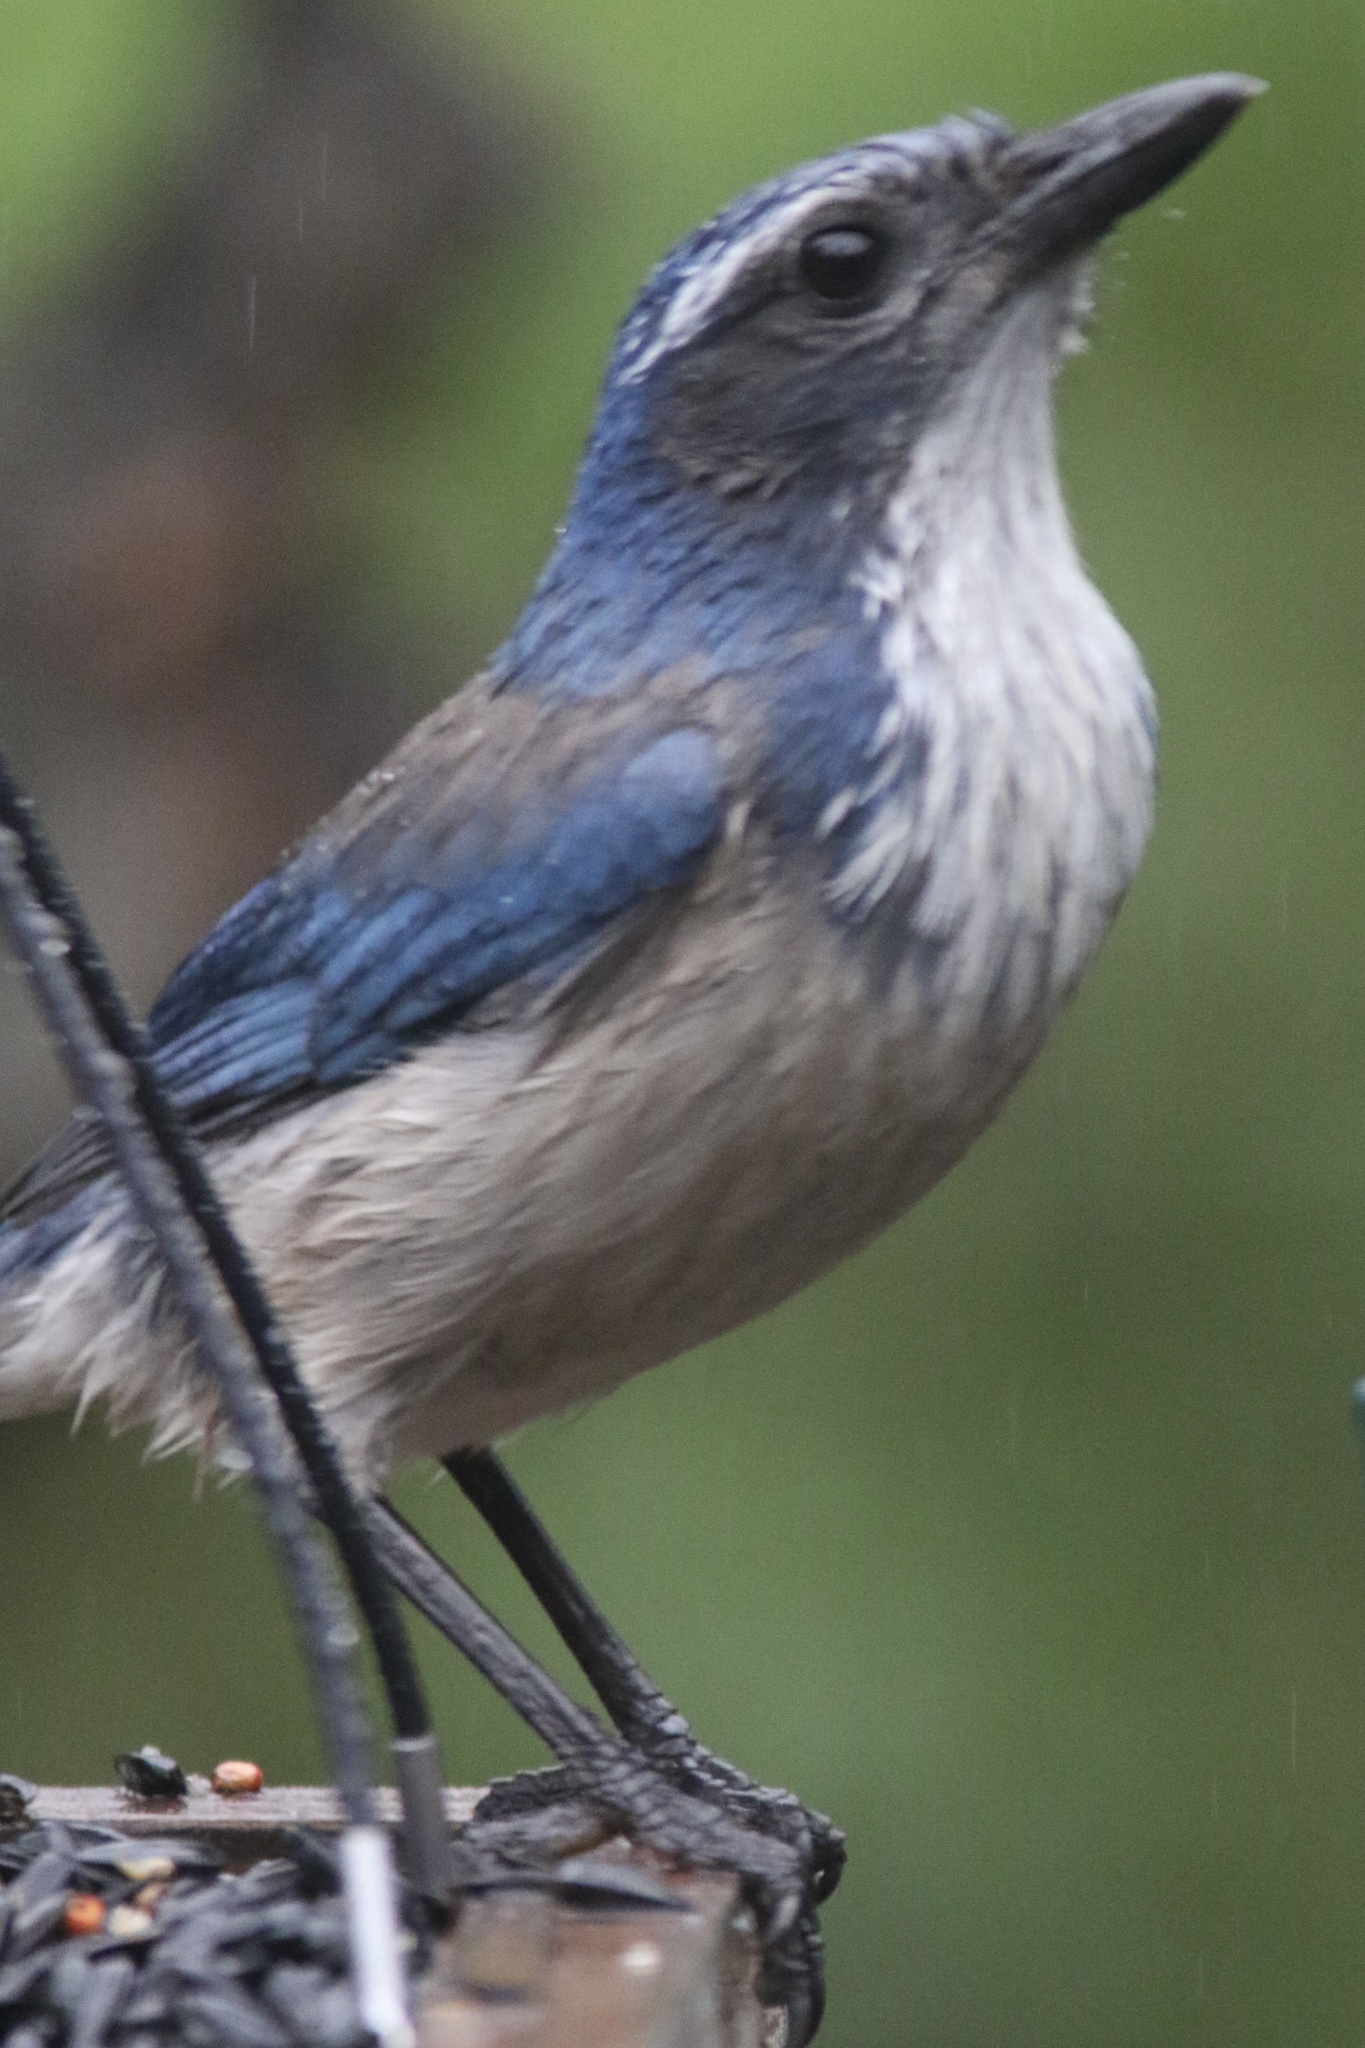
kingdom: Animalia
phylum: Chordata
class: Aves
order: Passeriformes
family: Corvidae
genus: Aphelocoma
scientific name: Aphelocoma californica
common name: California scrub-jay
